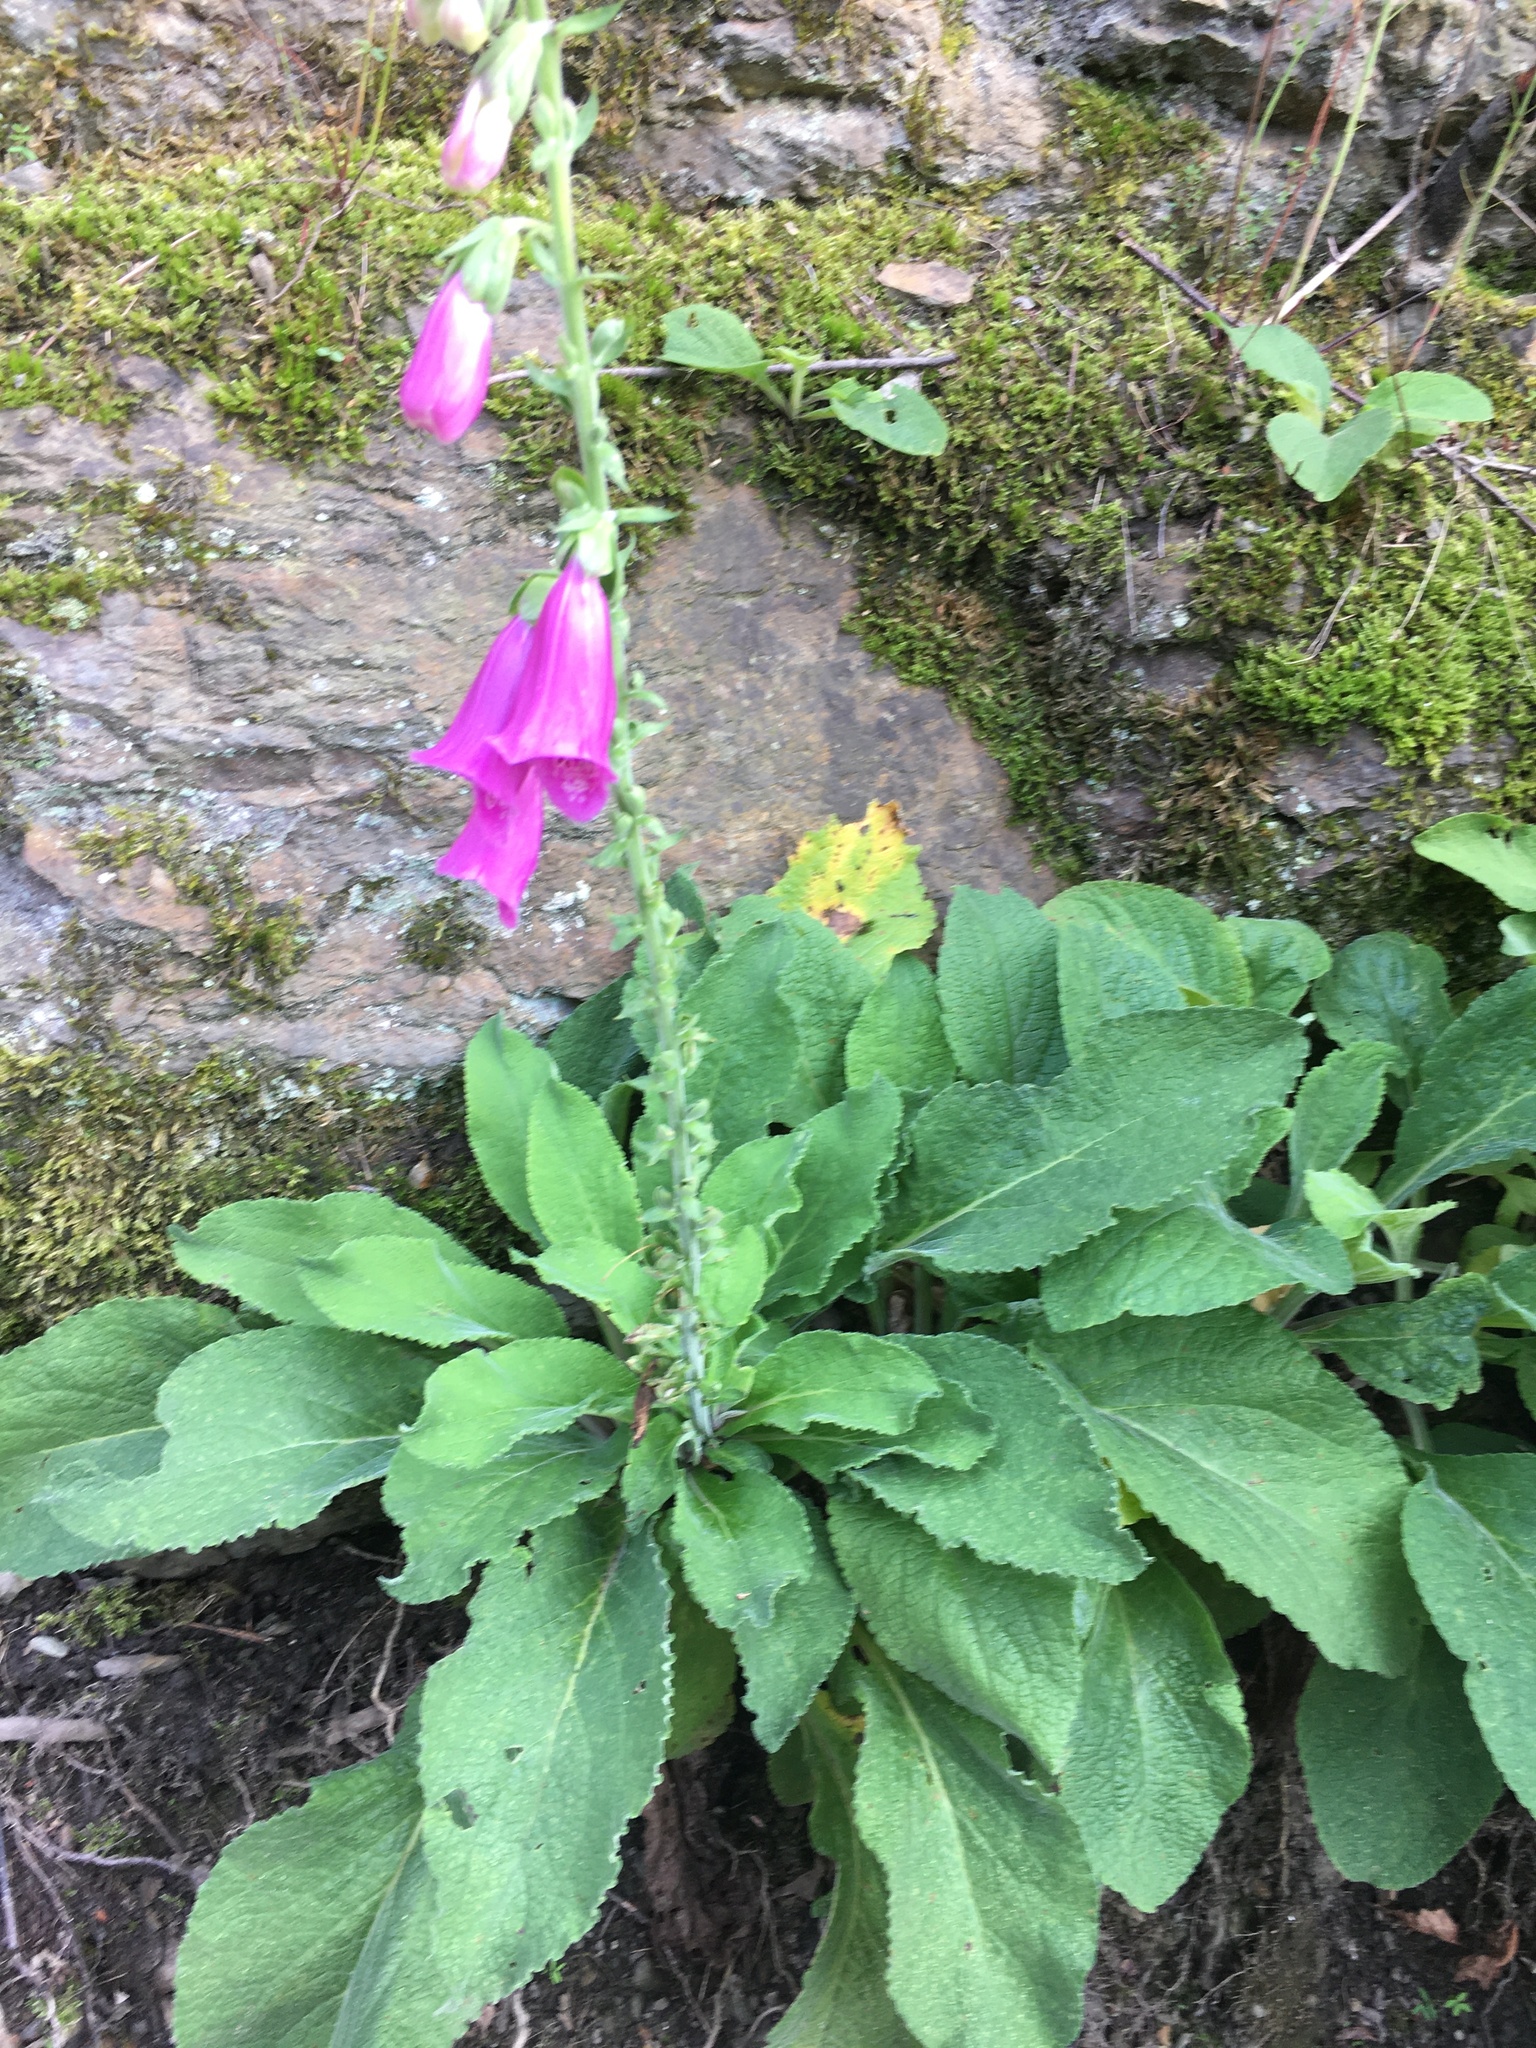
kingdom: Plantae
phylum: Tracheophyta
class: Magnoliopsida
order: Lamiales
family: Plantaginaceae
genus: Digitalis
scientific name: Digitalis purpurea
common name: Foxglove
